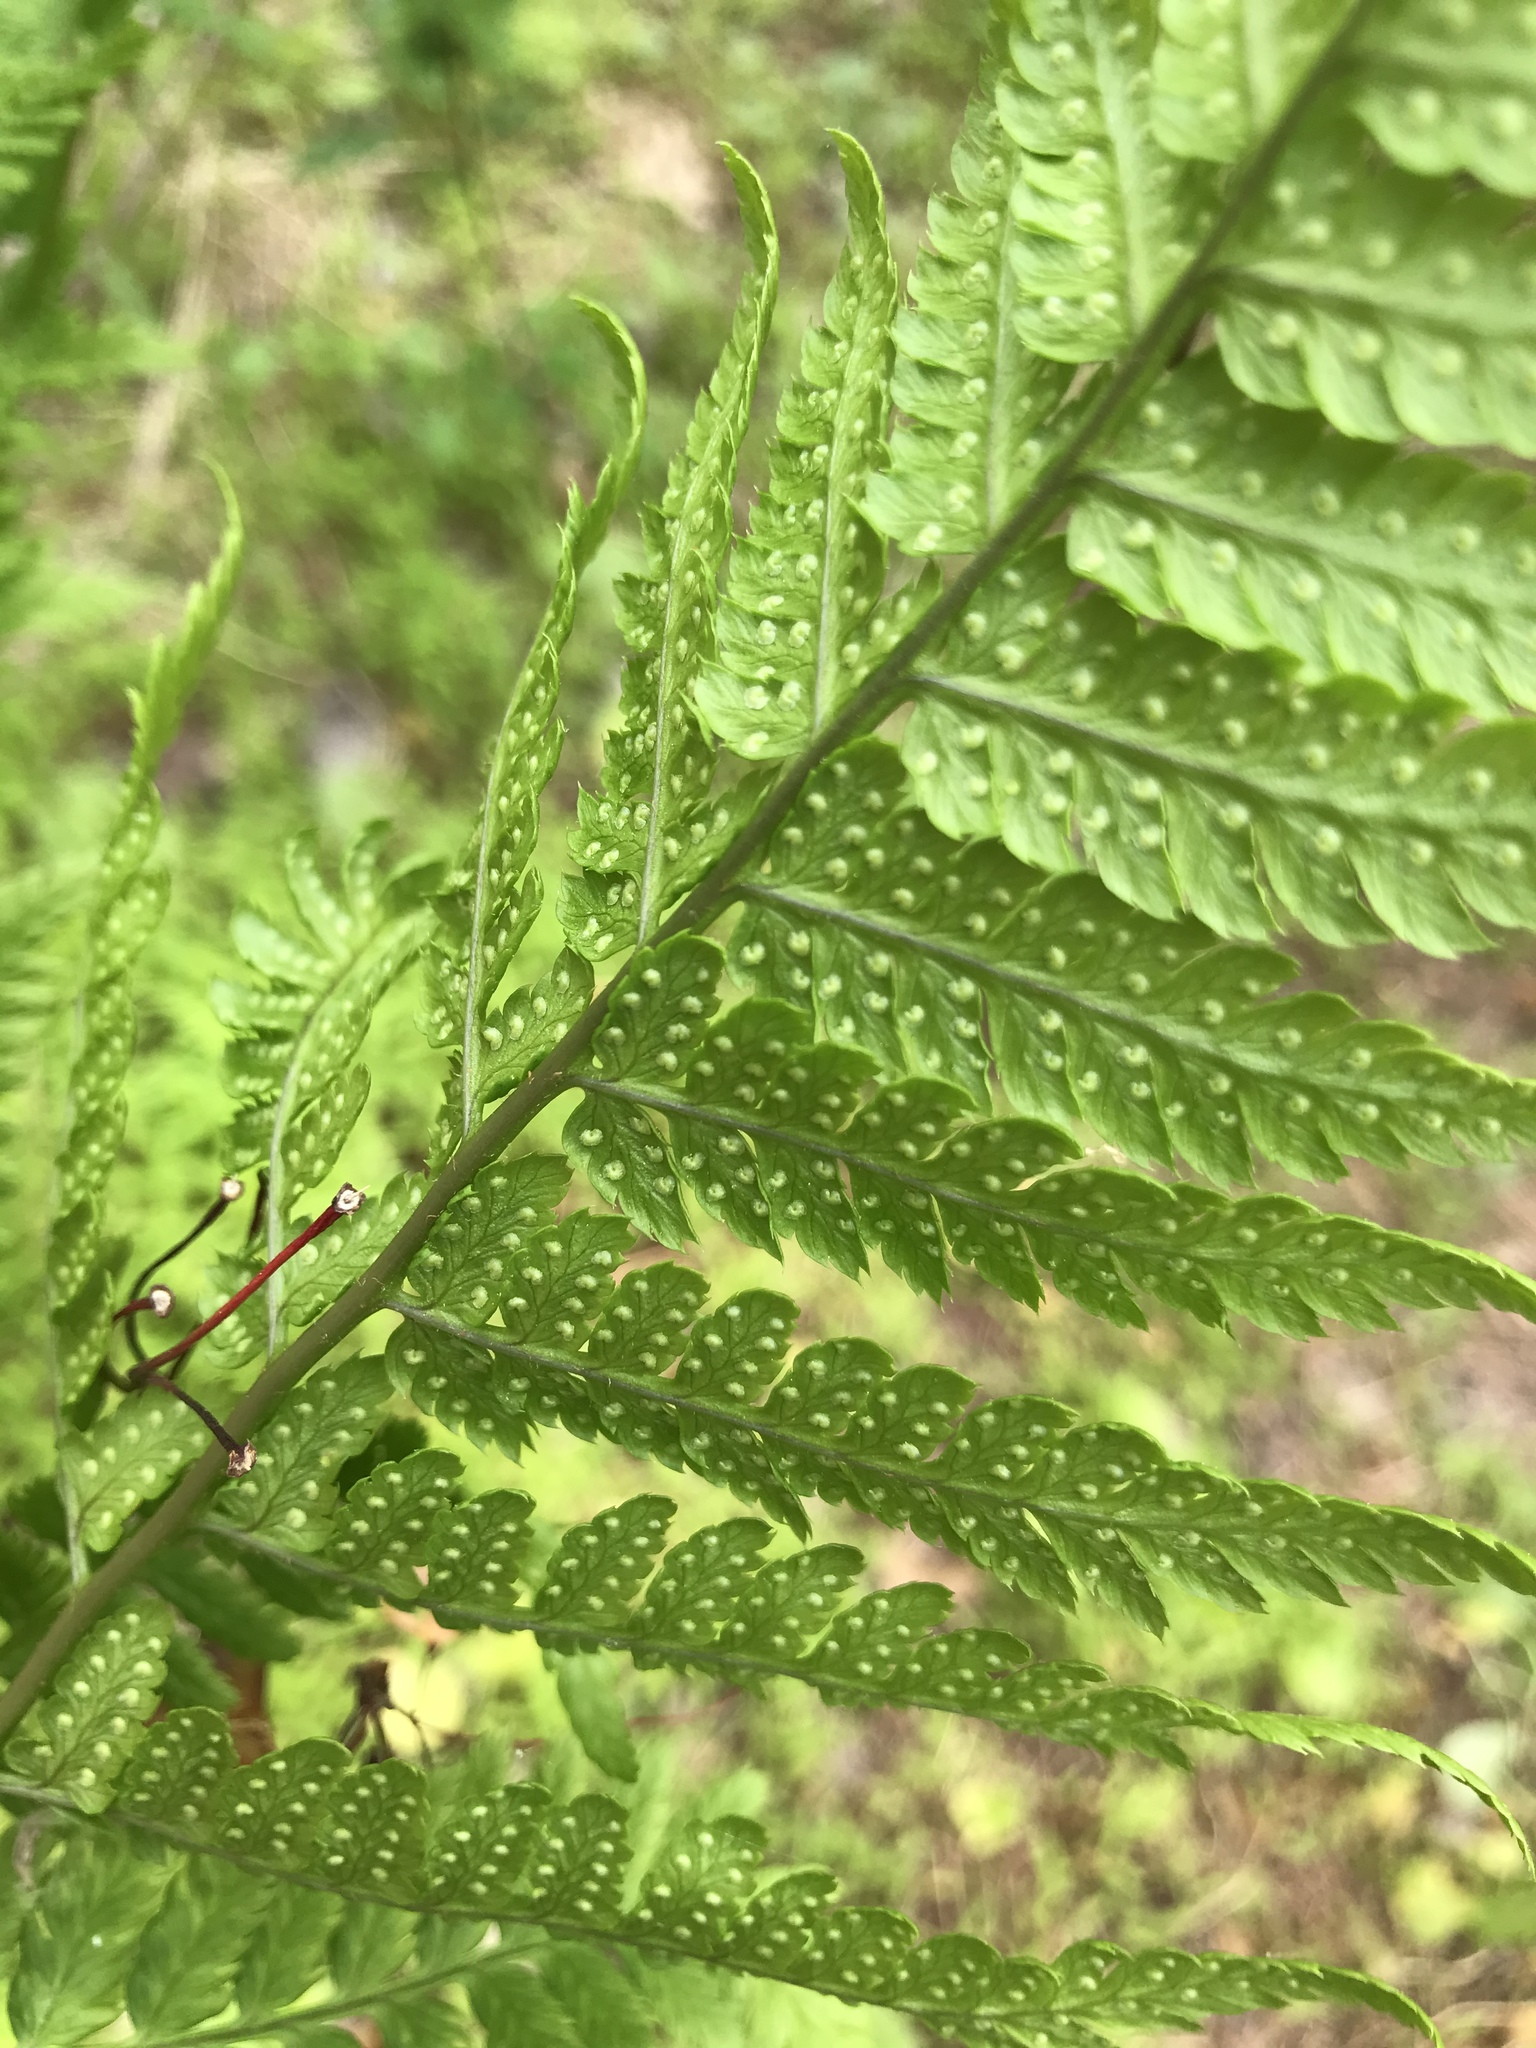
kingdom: Plantae
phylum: Tracheophyta
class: Polypodiopsida
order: Polypodiales
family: Dryopteridaceae
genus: Dryopteris
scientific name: Dryopteris carthusiana
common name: Narrow buckler-fern
